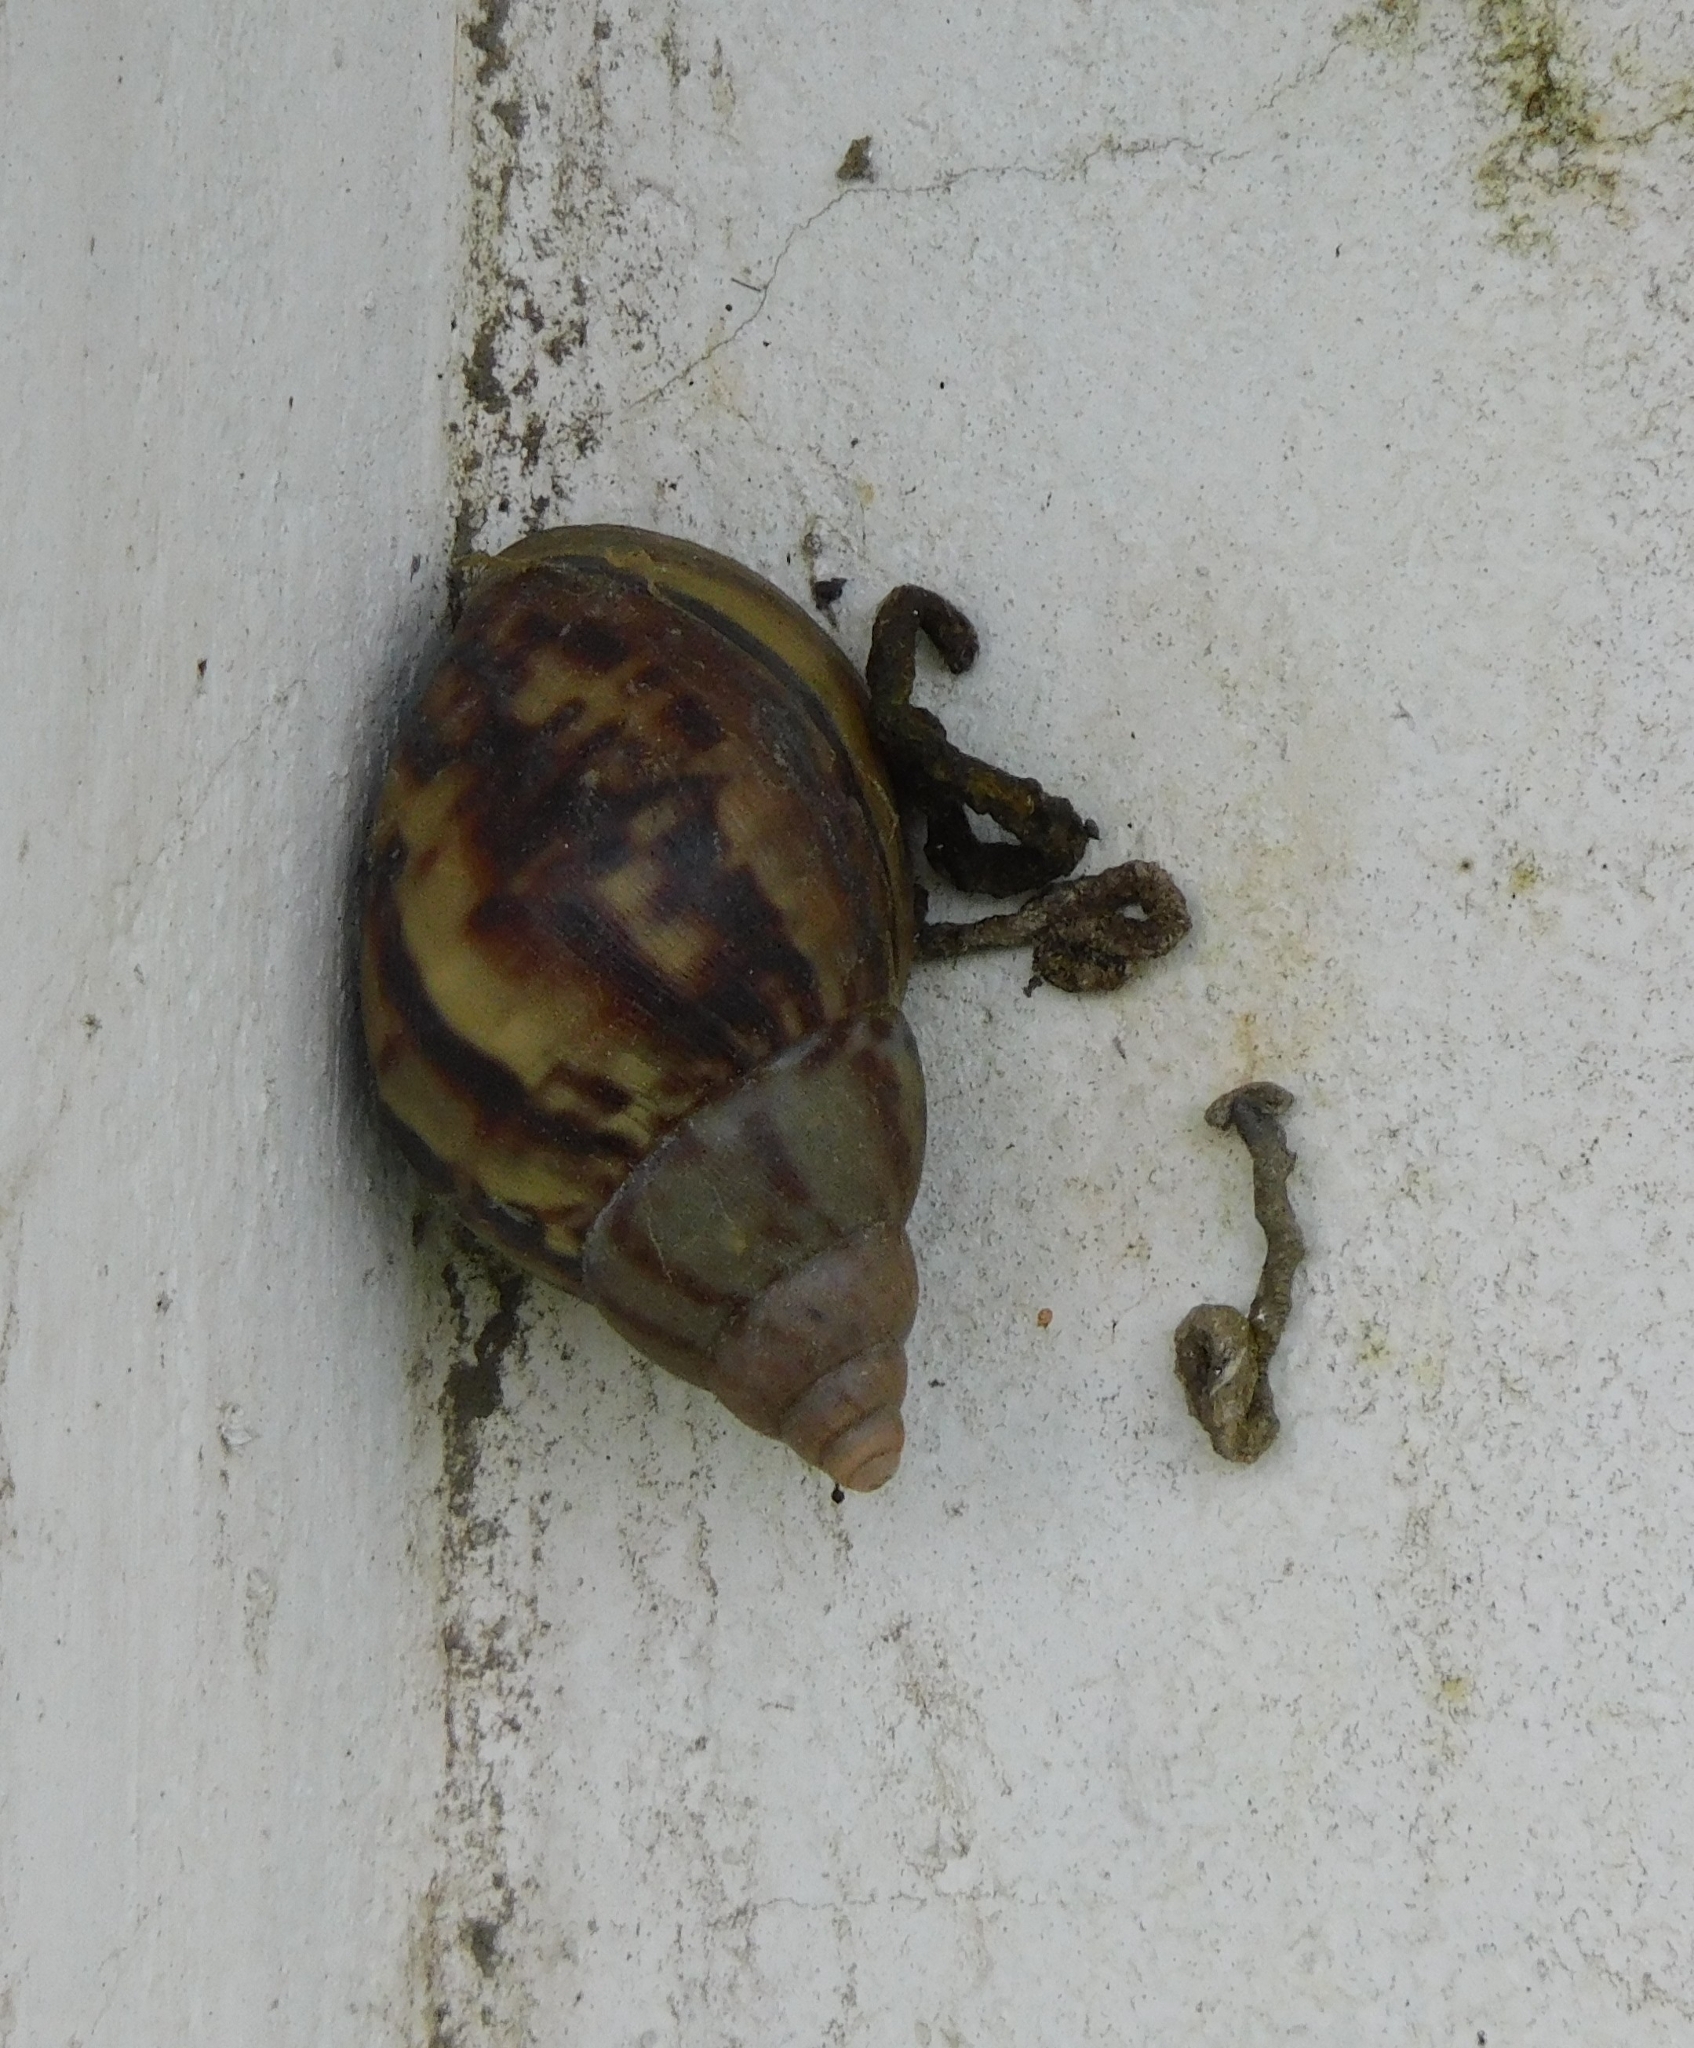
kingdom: Animalia
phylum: Mollusca
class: Gastropoda
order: Stylommatophora
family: Achatinidae
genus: Lissachatina
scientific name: Lissachatina fulica
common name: Giant african snail
